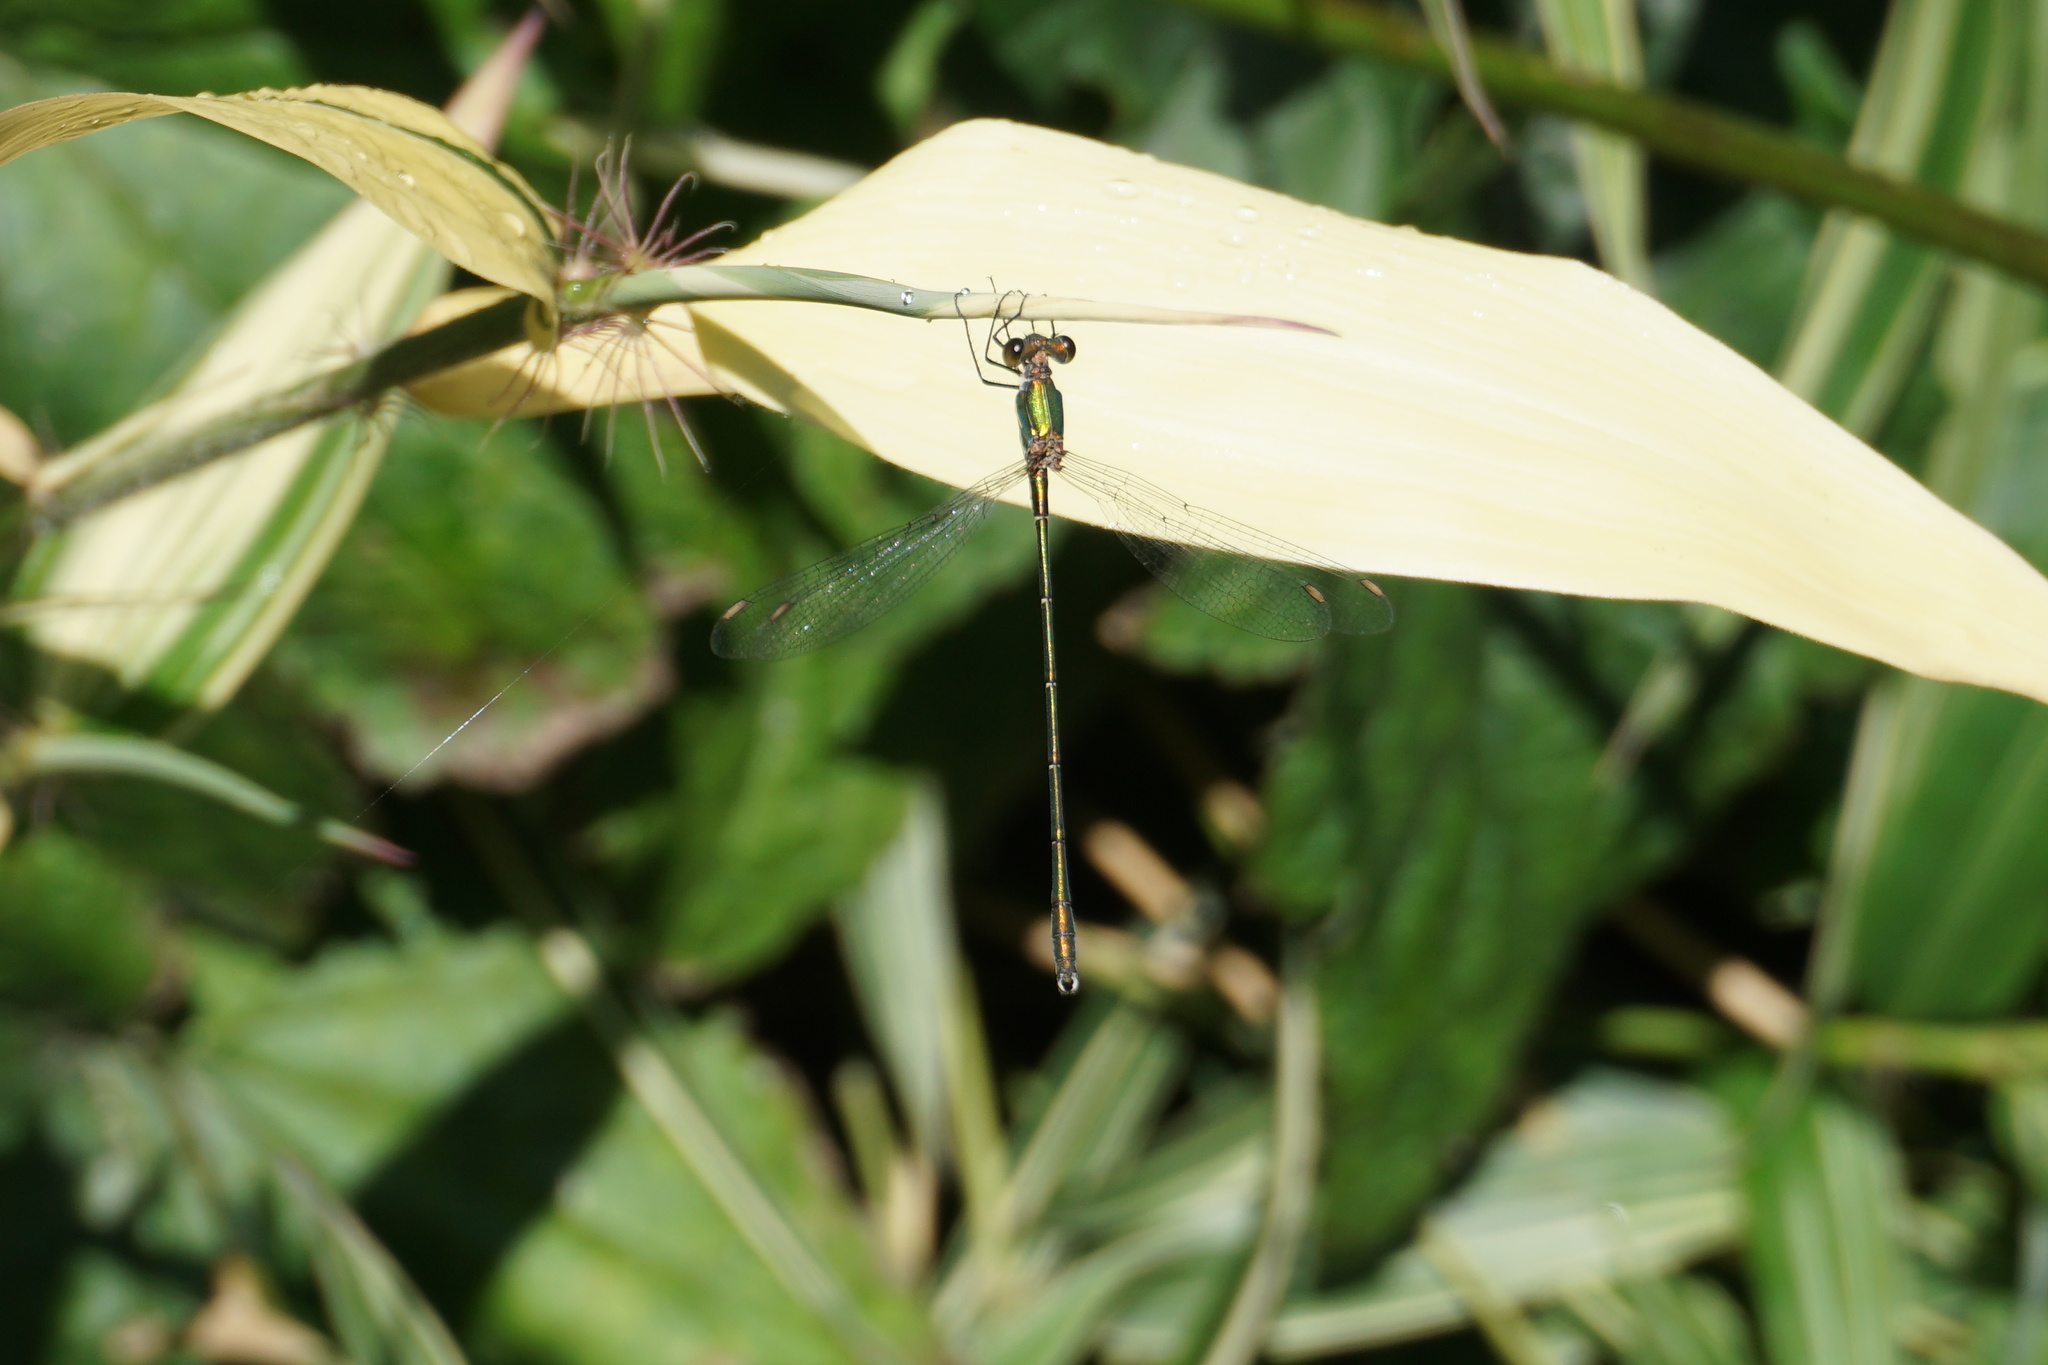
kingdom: Animalia
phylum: Arthropoda
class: Insecta
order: Odonata
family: Lestidae
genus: Chalcolestes
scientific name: Chalcolestes viridis
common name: Green emerald damselfly
